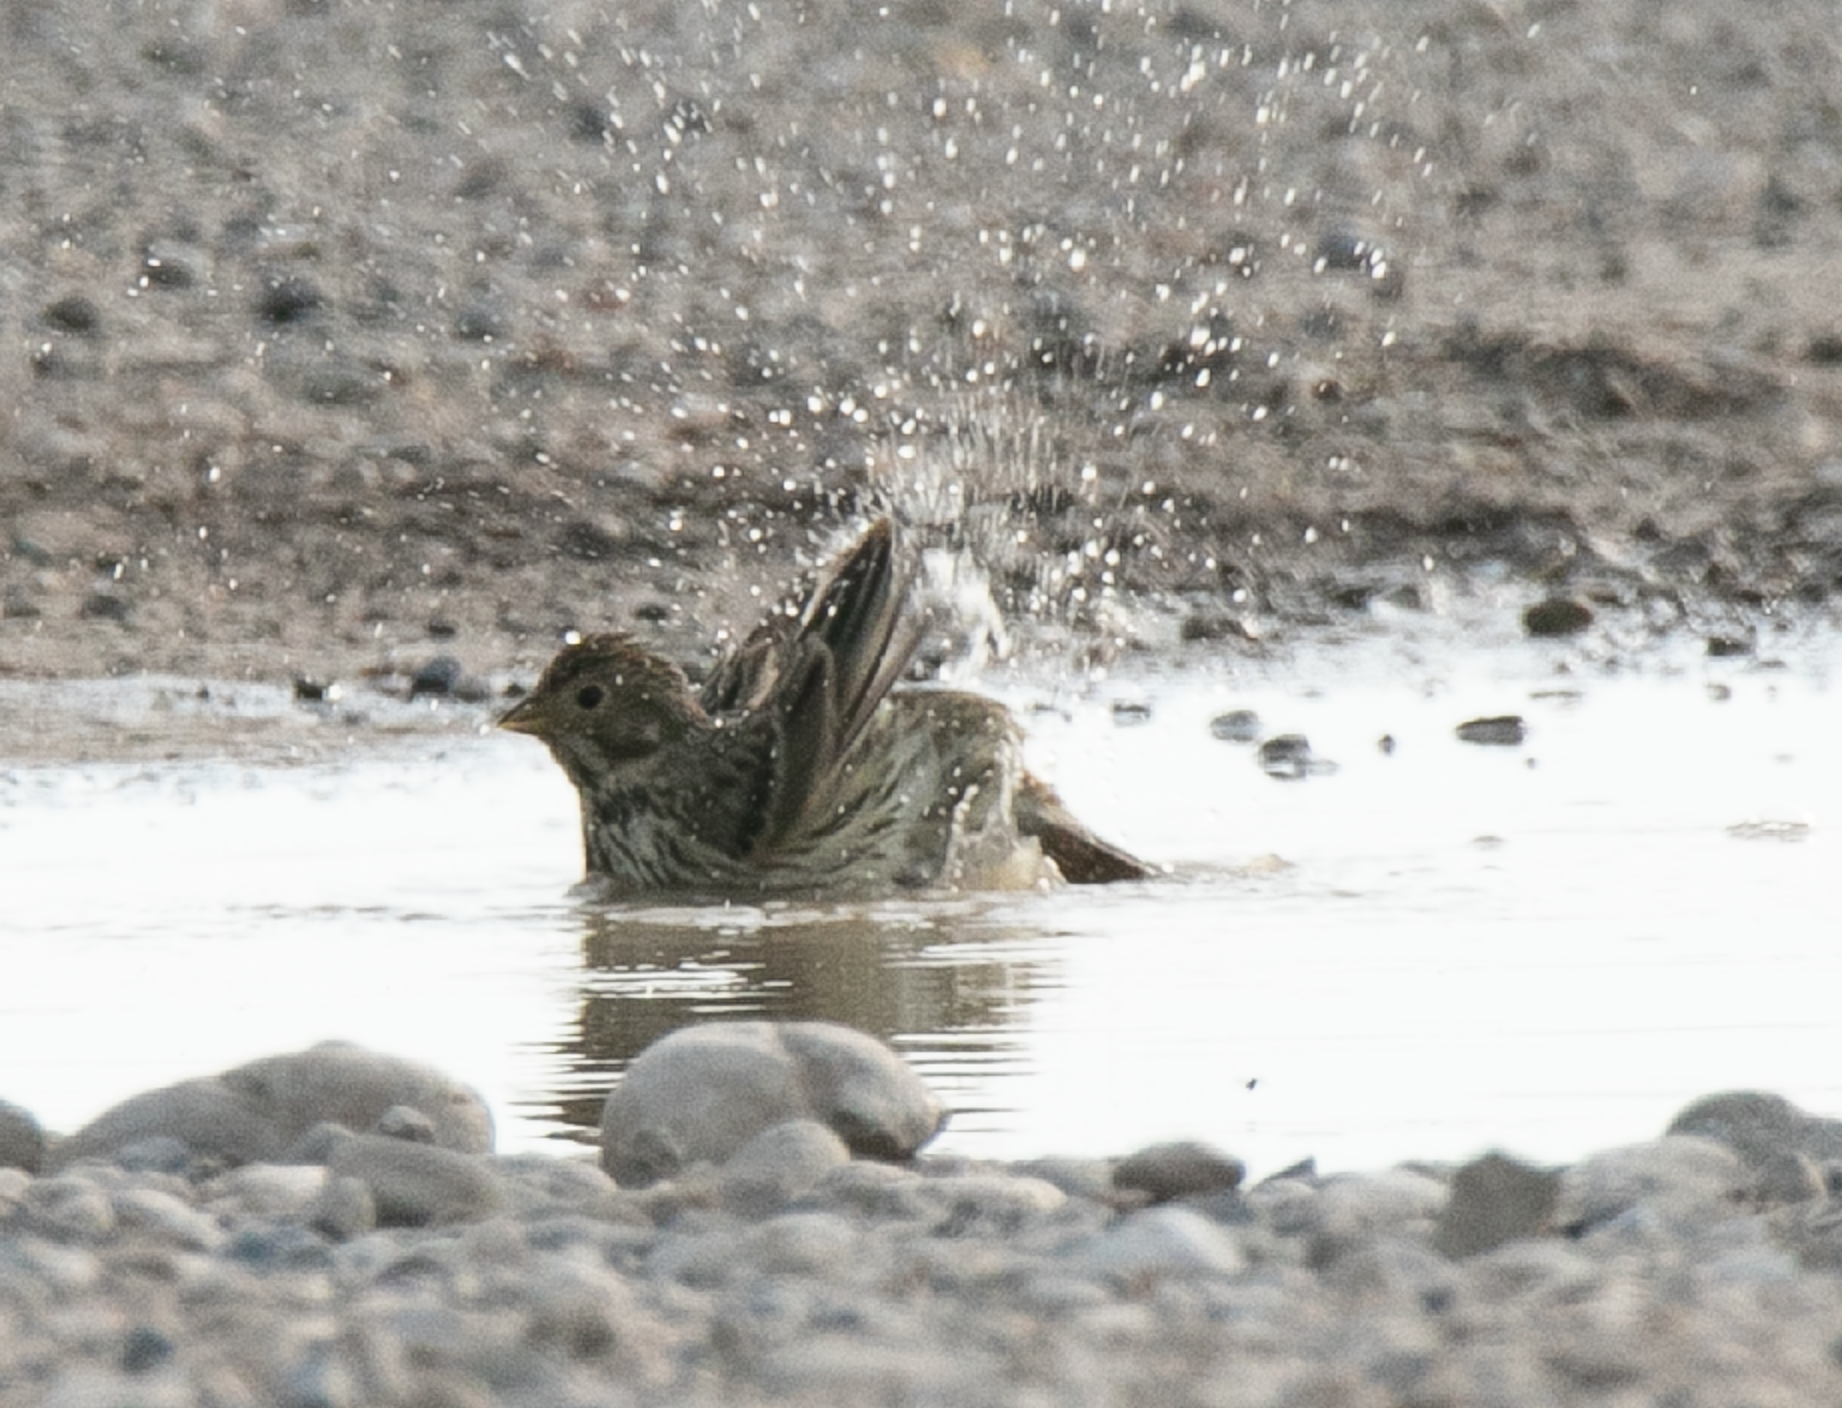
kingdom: Animalia
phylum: Chordata
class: Aves
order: Passeriformes
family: Emberizidae
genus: Emberiza
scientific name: Emberiza calandra
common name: Corn bunting
